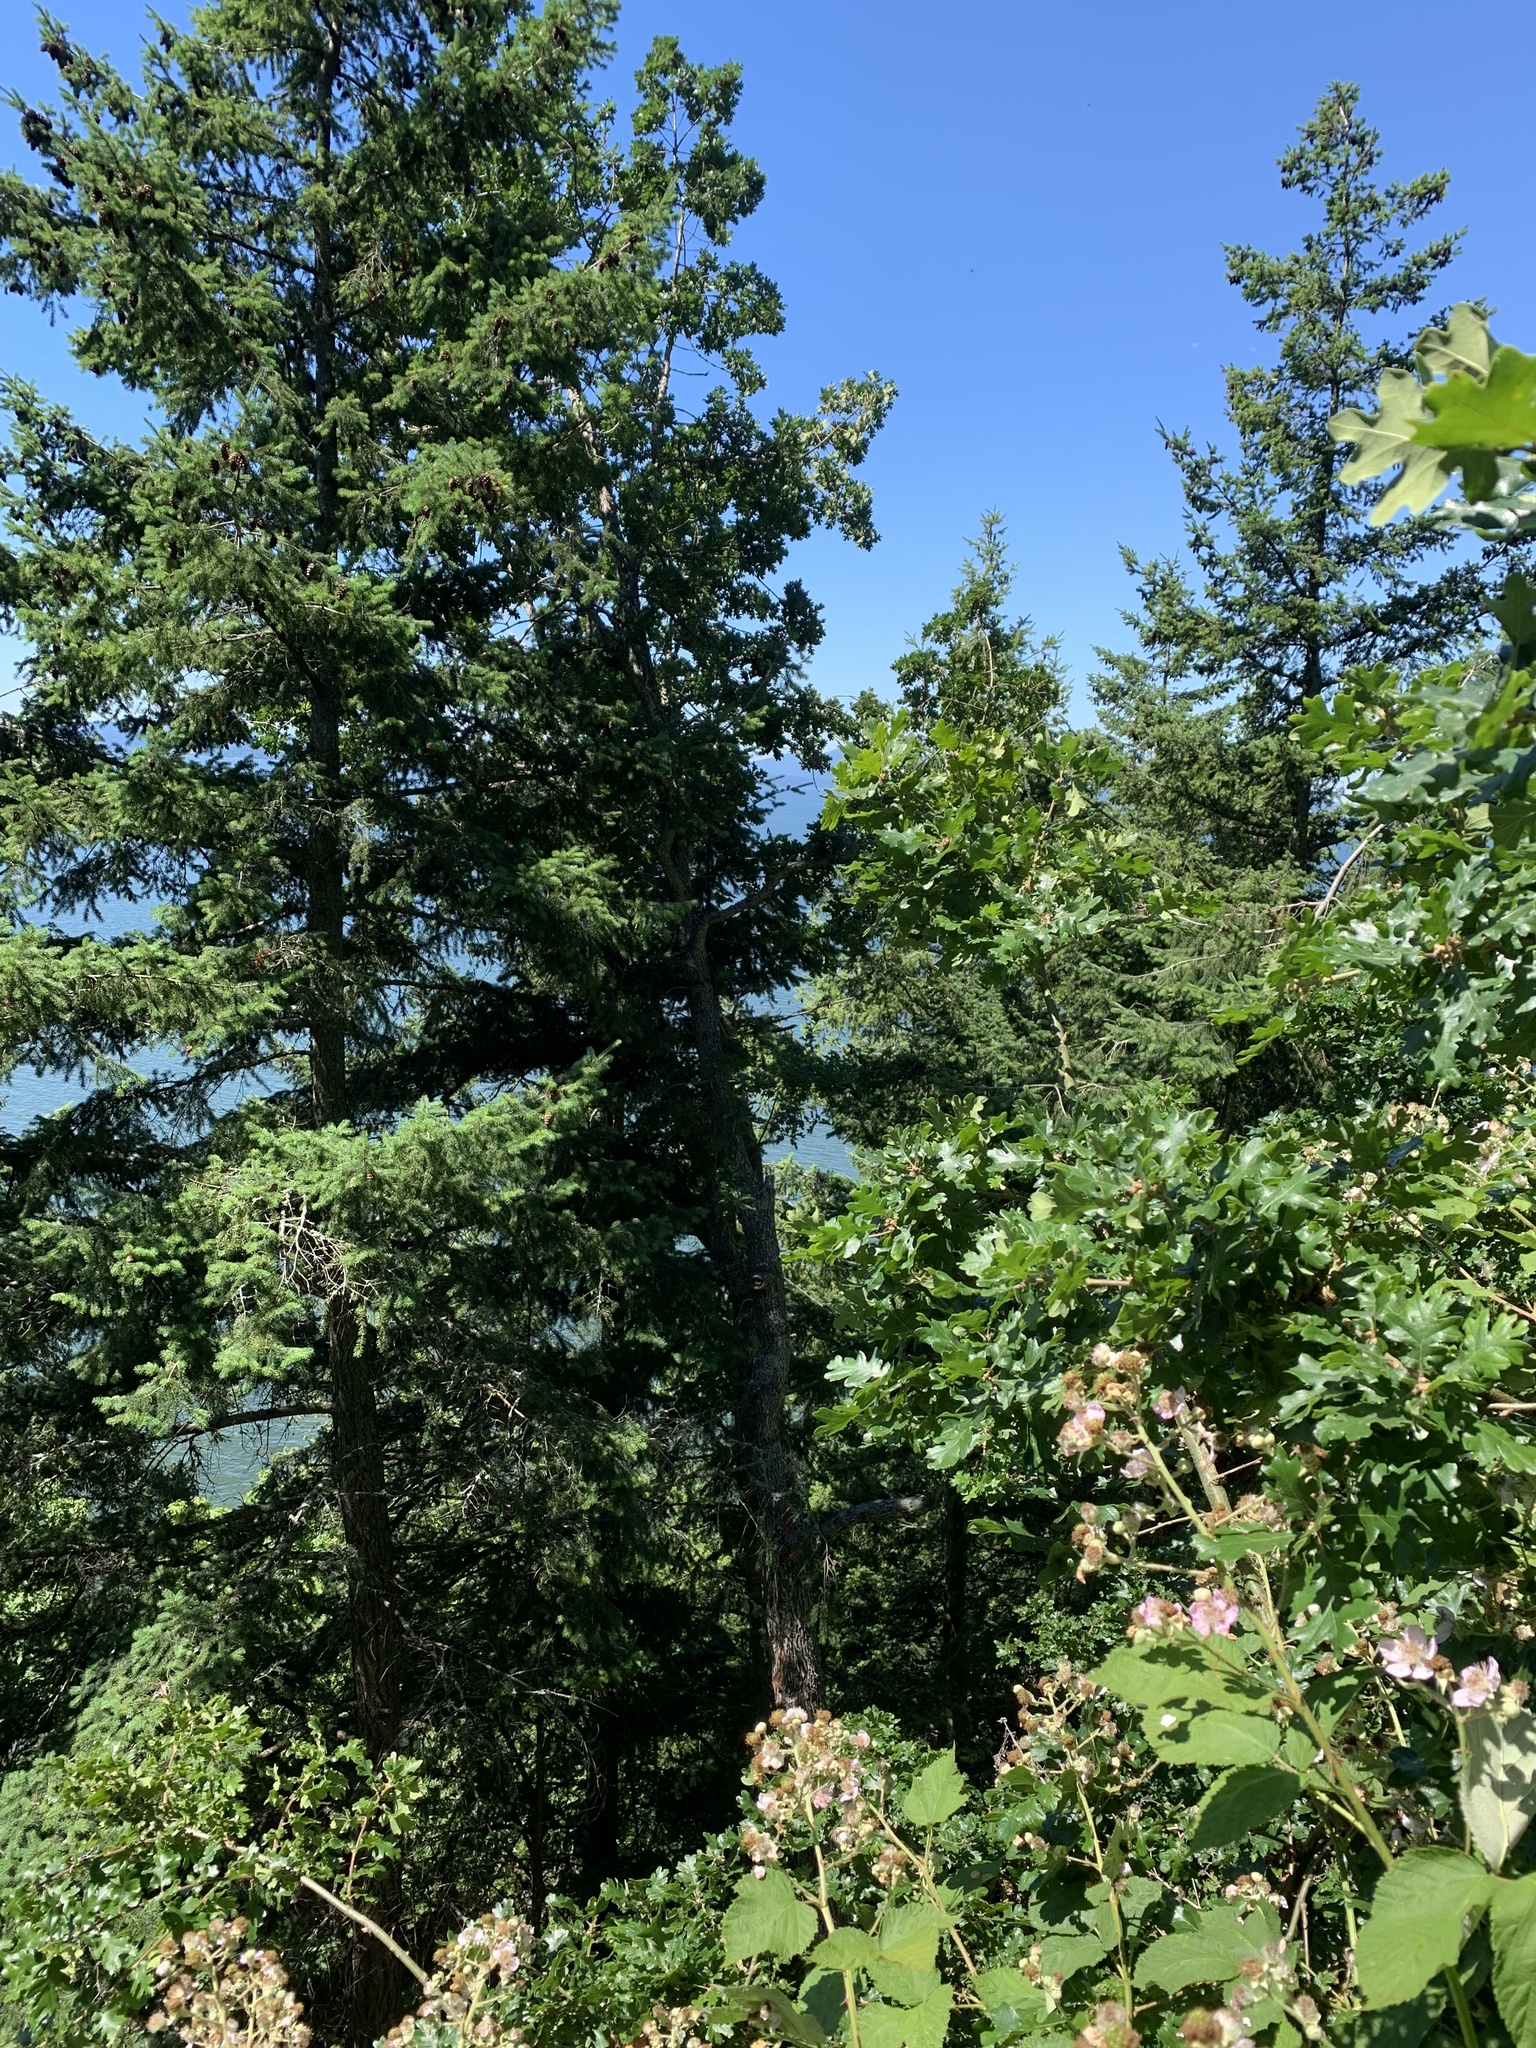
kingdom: Plantae
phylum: Tracheophyta
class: Magnoliopsida
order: Fagales
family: Fagaceae
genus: Quercus
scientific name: Quercus garryana
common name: Garry oak
